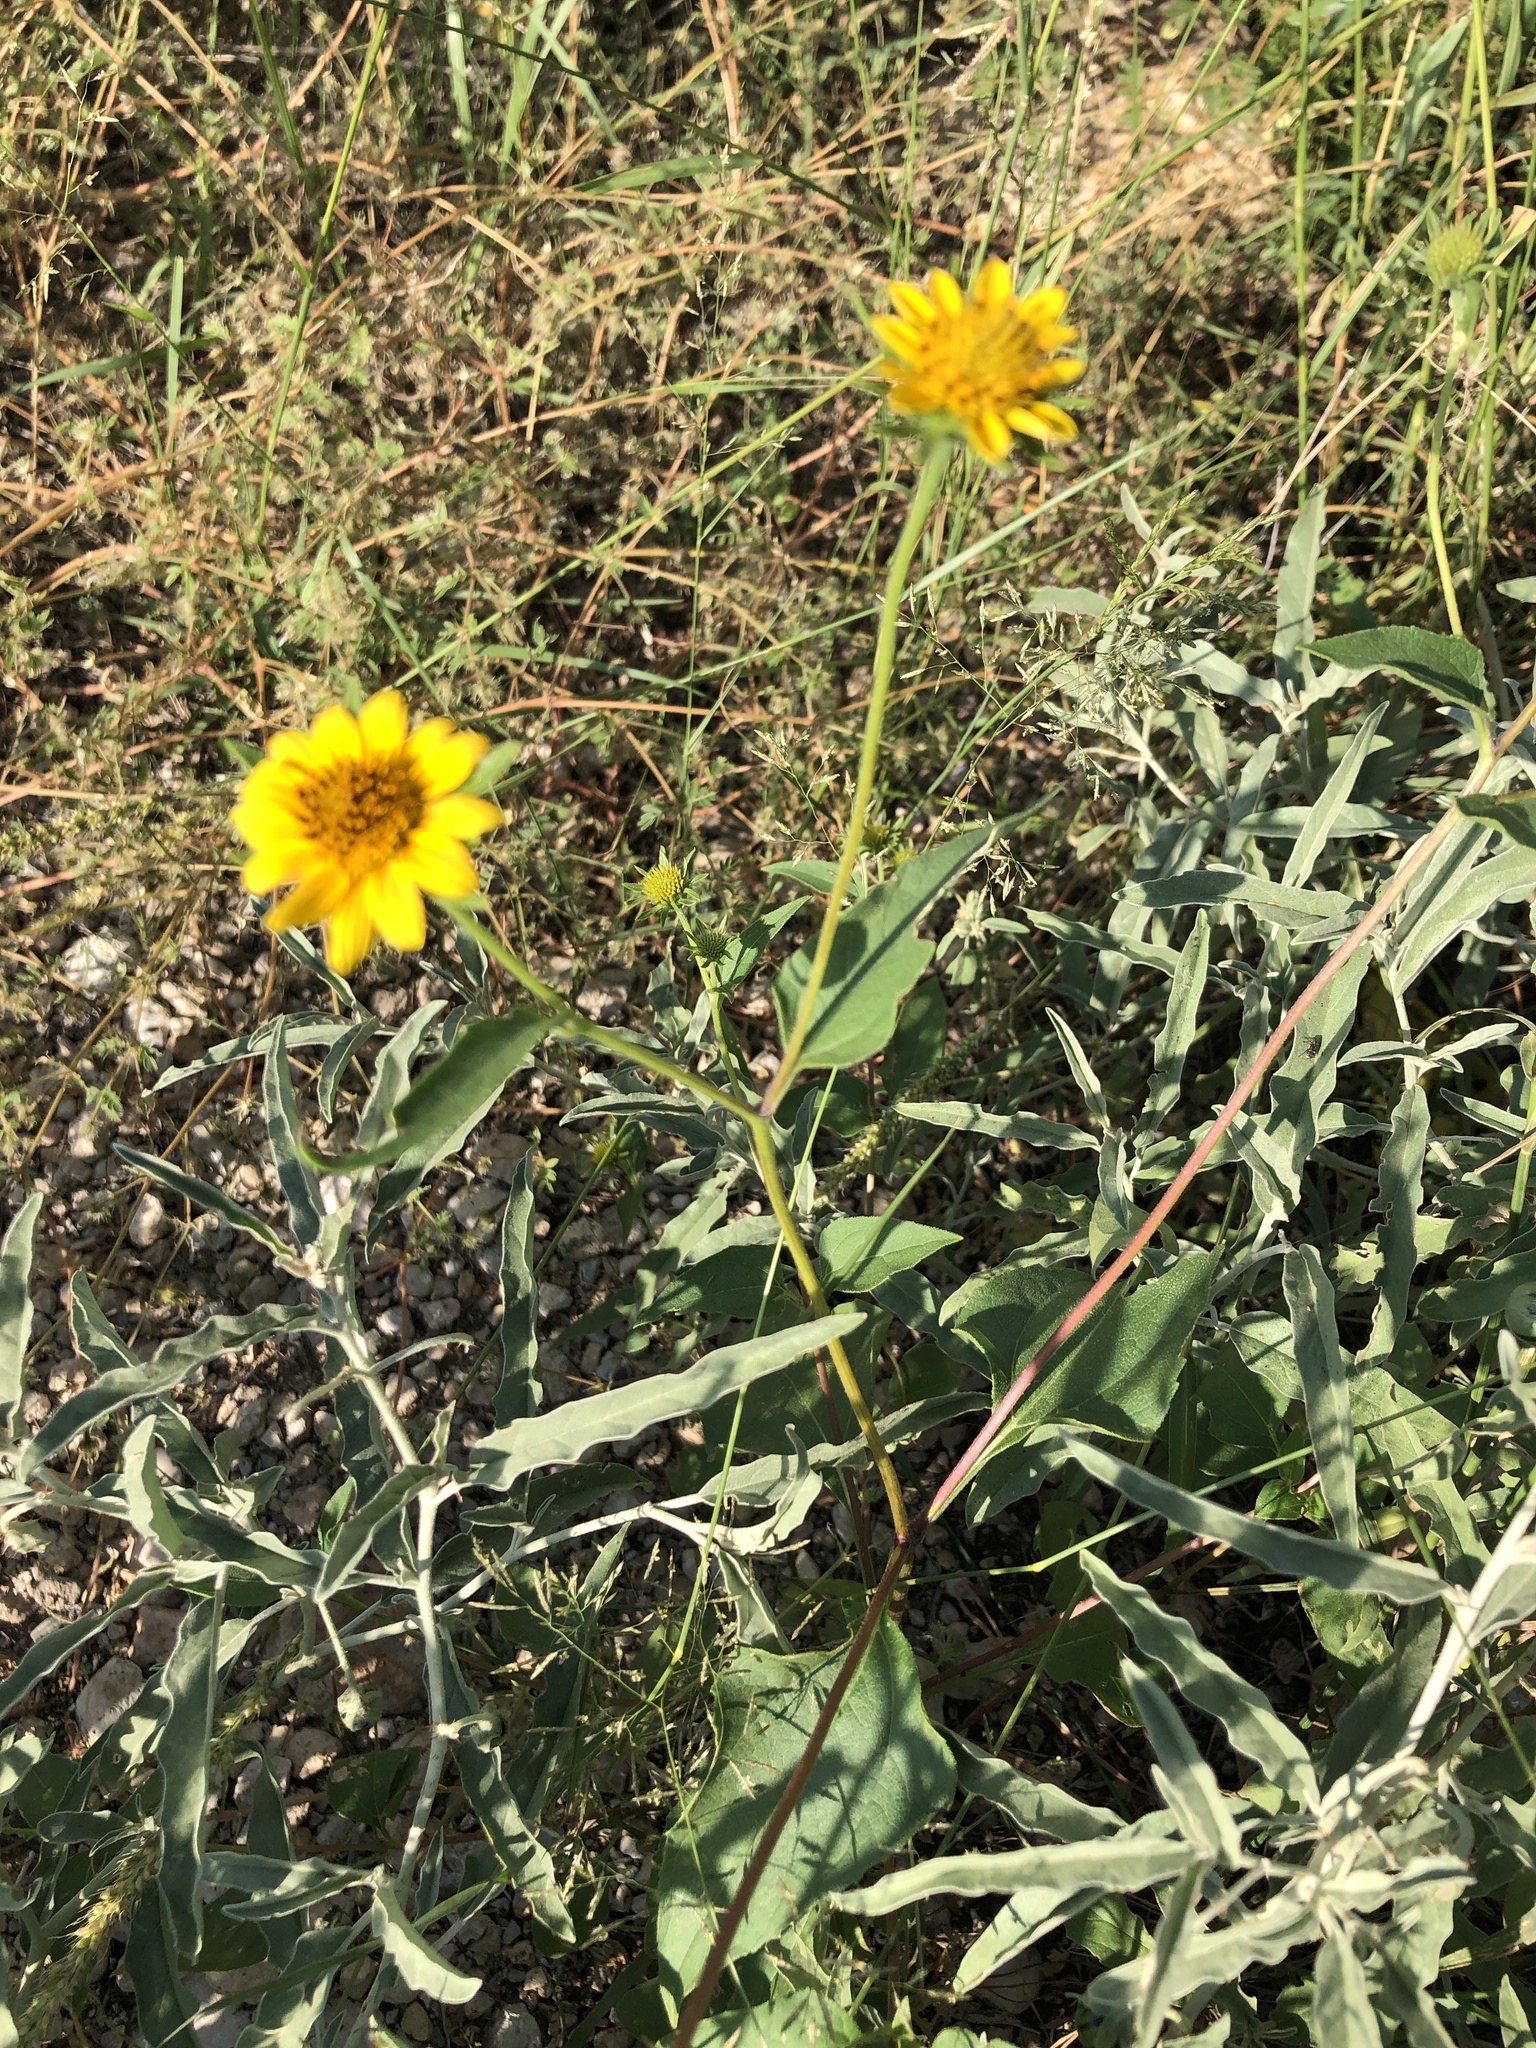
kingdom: Plantae
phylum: Tracheophyta
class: Magnoliopsida
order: Asterales
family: Asteraceae
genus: Verbesina
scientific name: Verbesina encelioides
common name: Golden crownbeard
